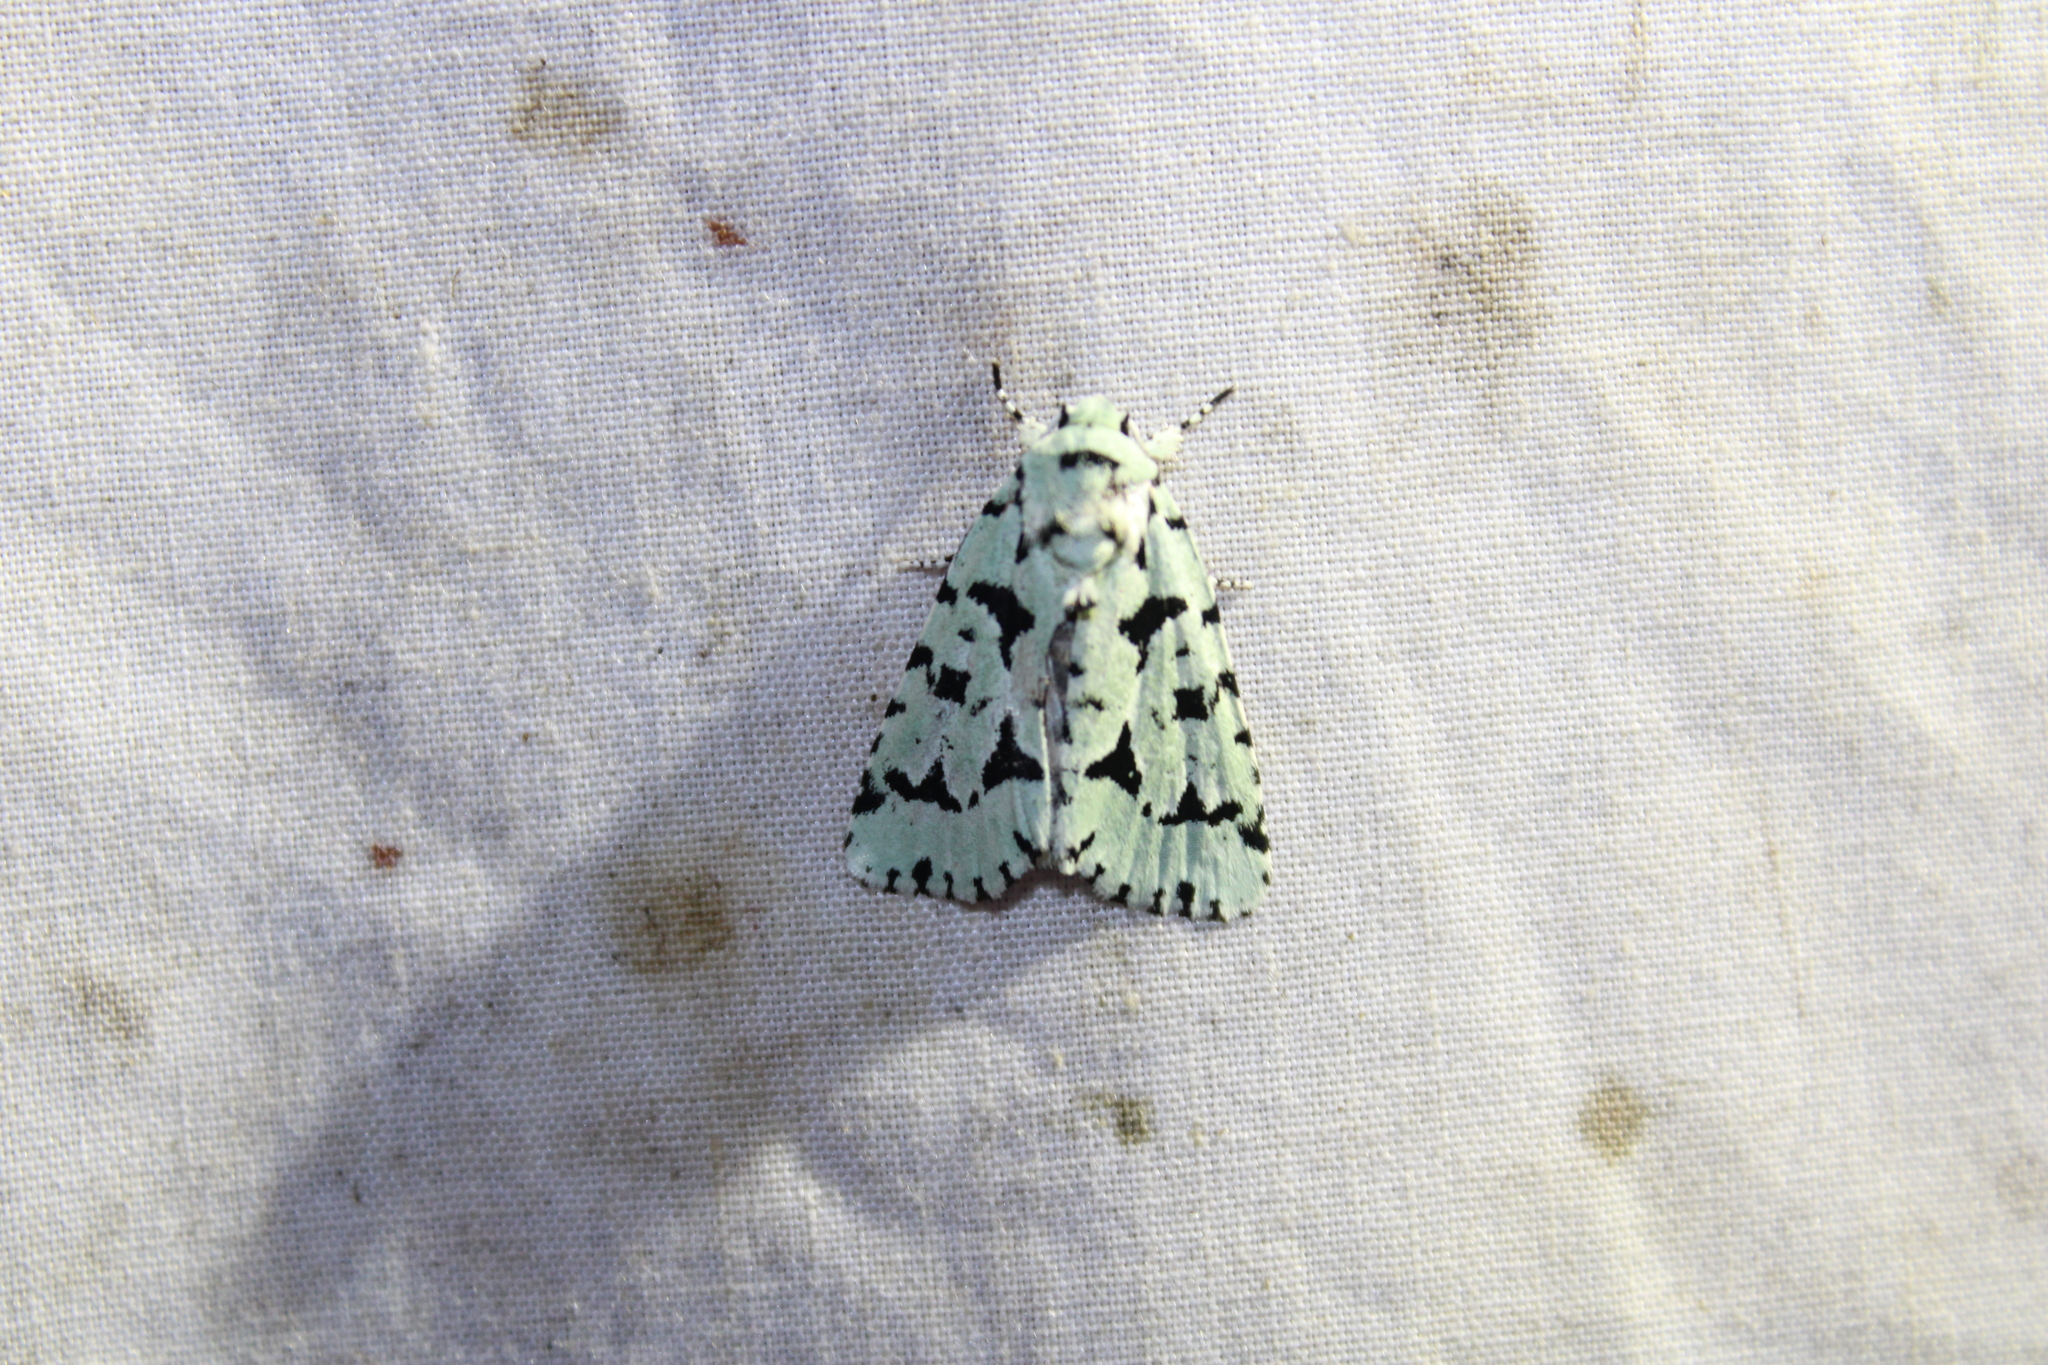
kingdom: Animalia
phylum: Arthropoda
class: Insecta
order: Lepidoptera
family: Noctuidae
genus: Acronicta
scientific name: Acronicta fallax
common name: Green marvel
